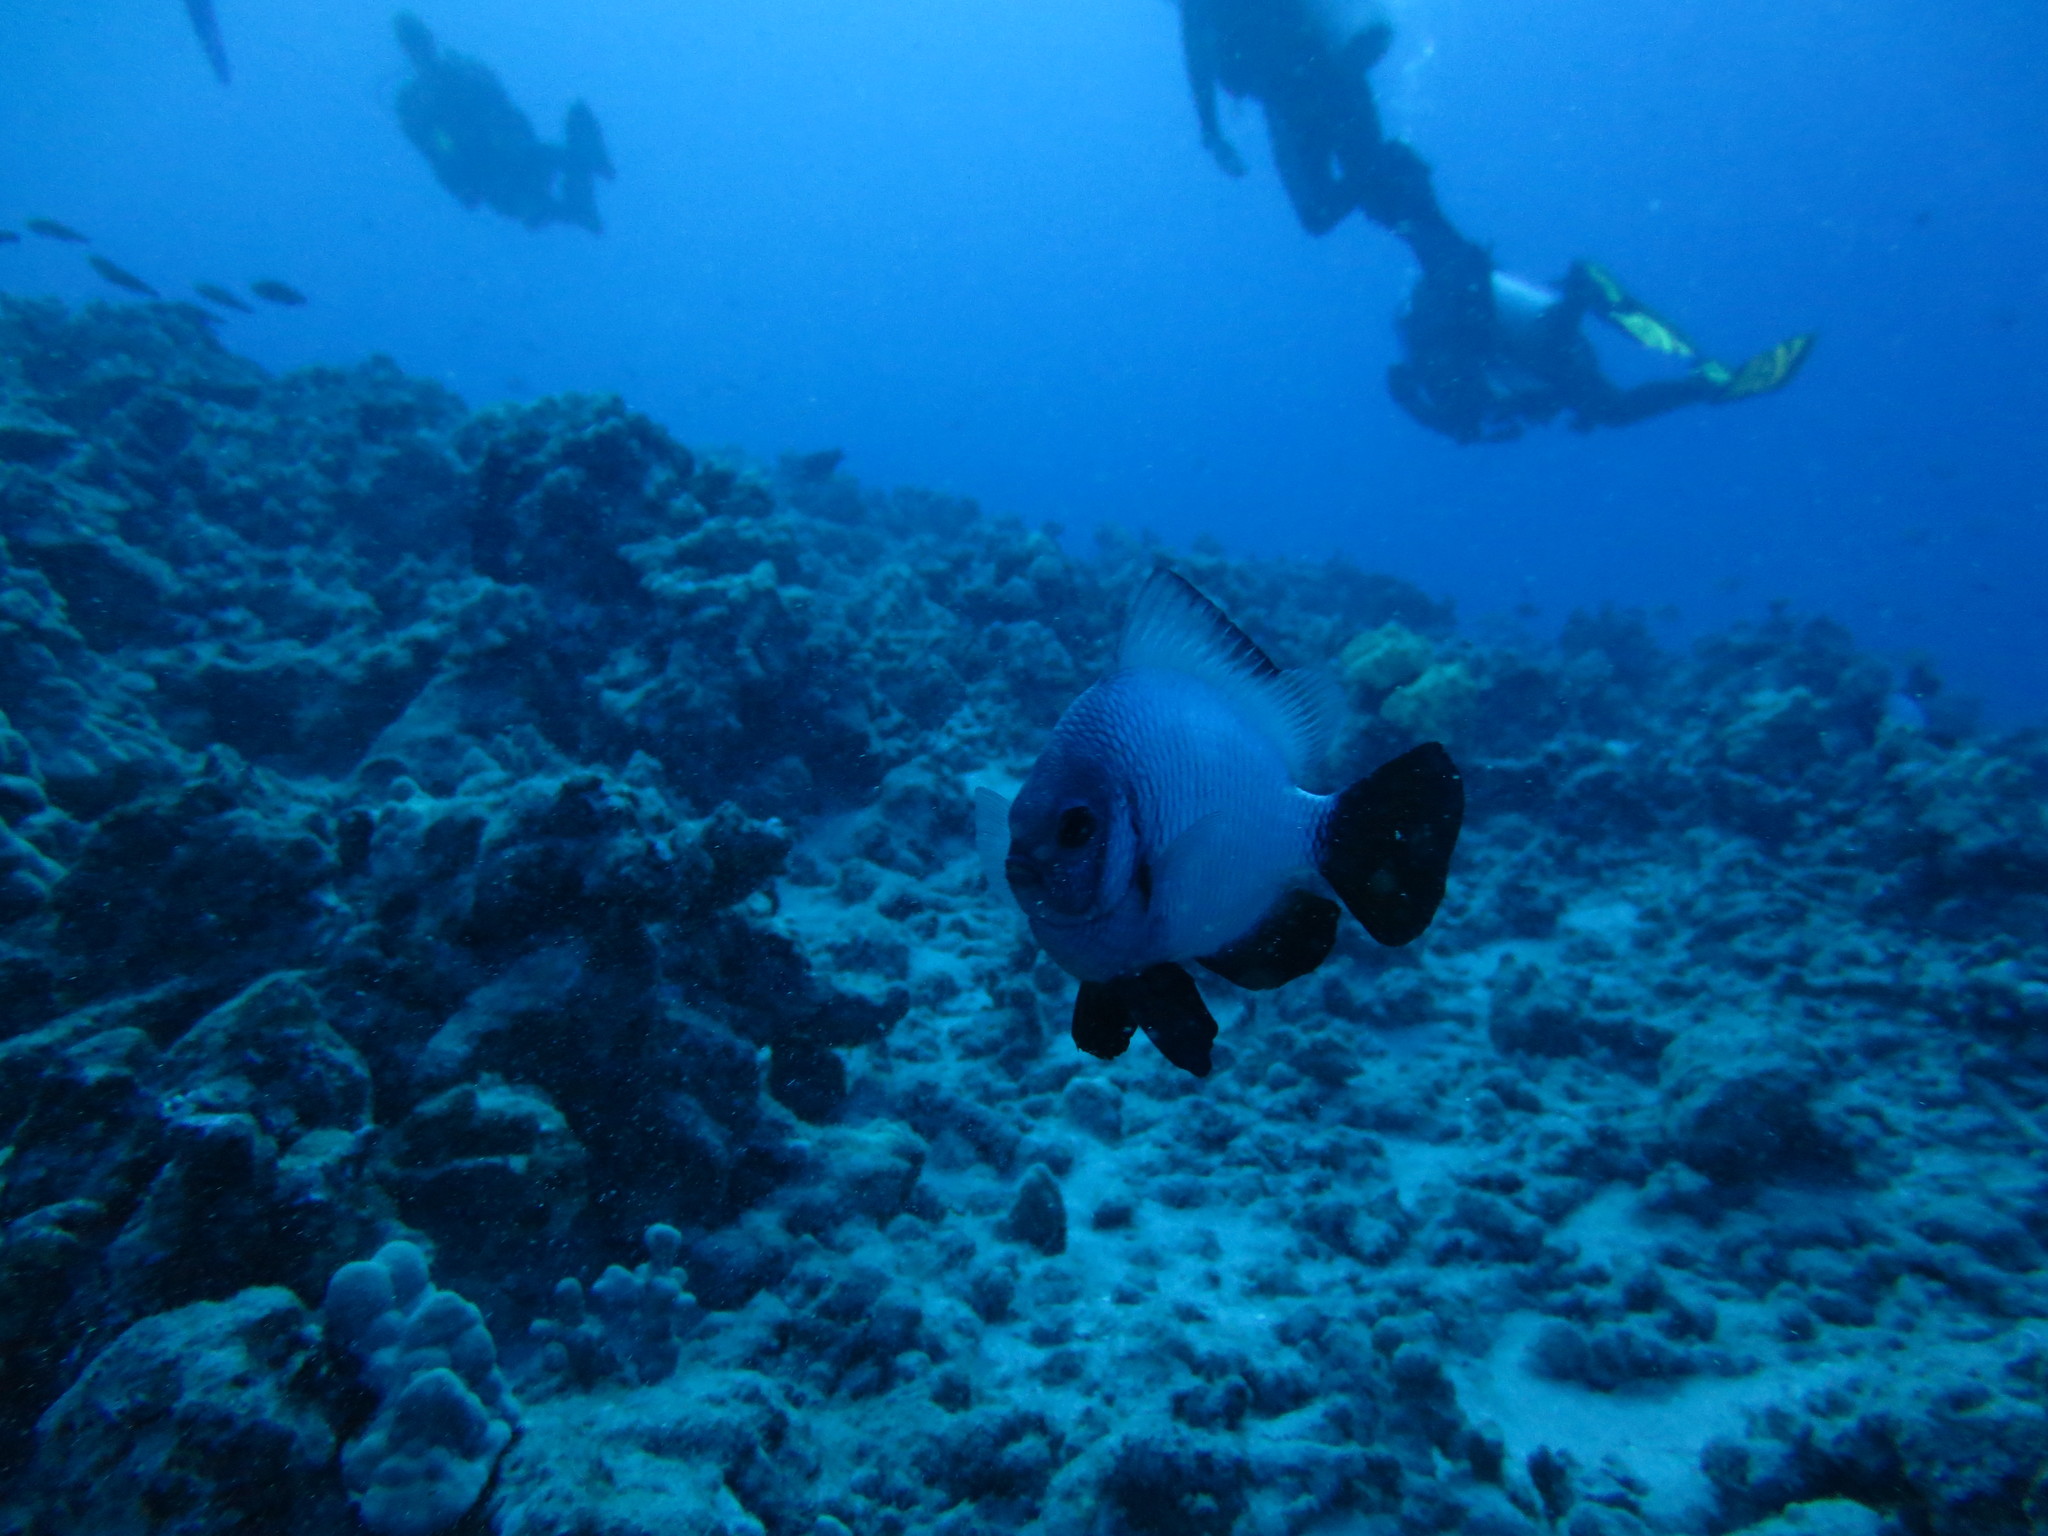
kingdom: Animalia
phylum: Chordata
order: Perciformes
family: Pomacentridae
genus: Dascyllus
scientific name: Dascyllus albisella
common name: Hawaiian dascyllus
